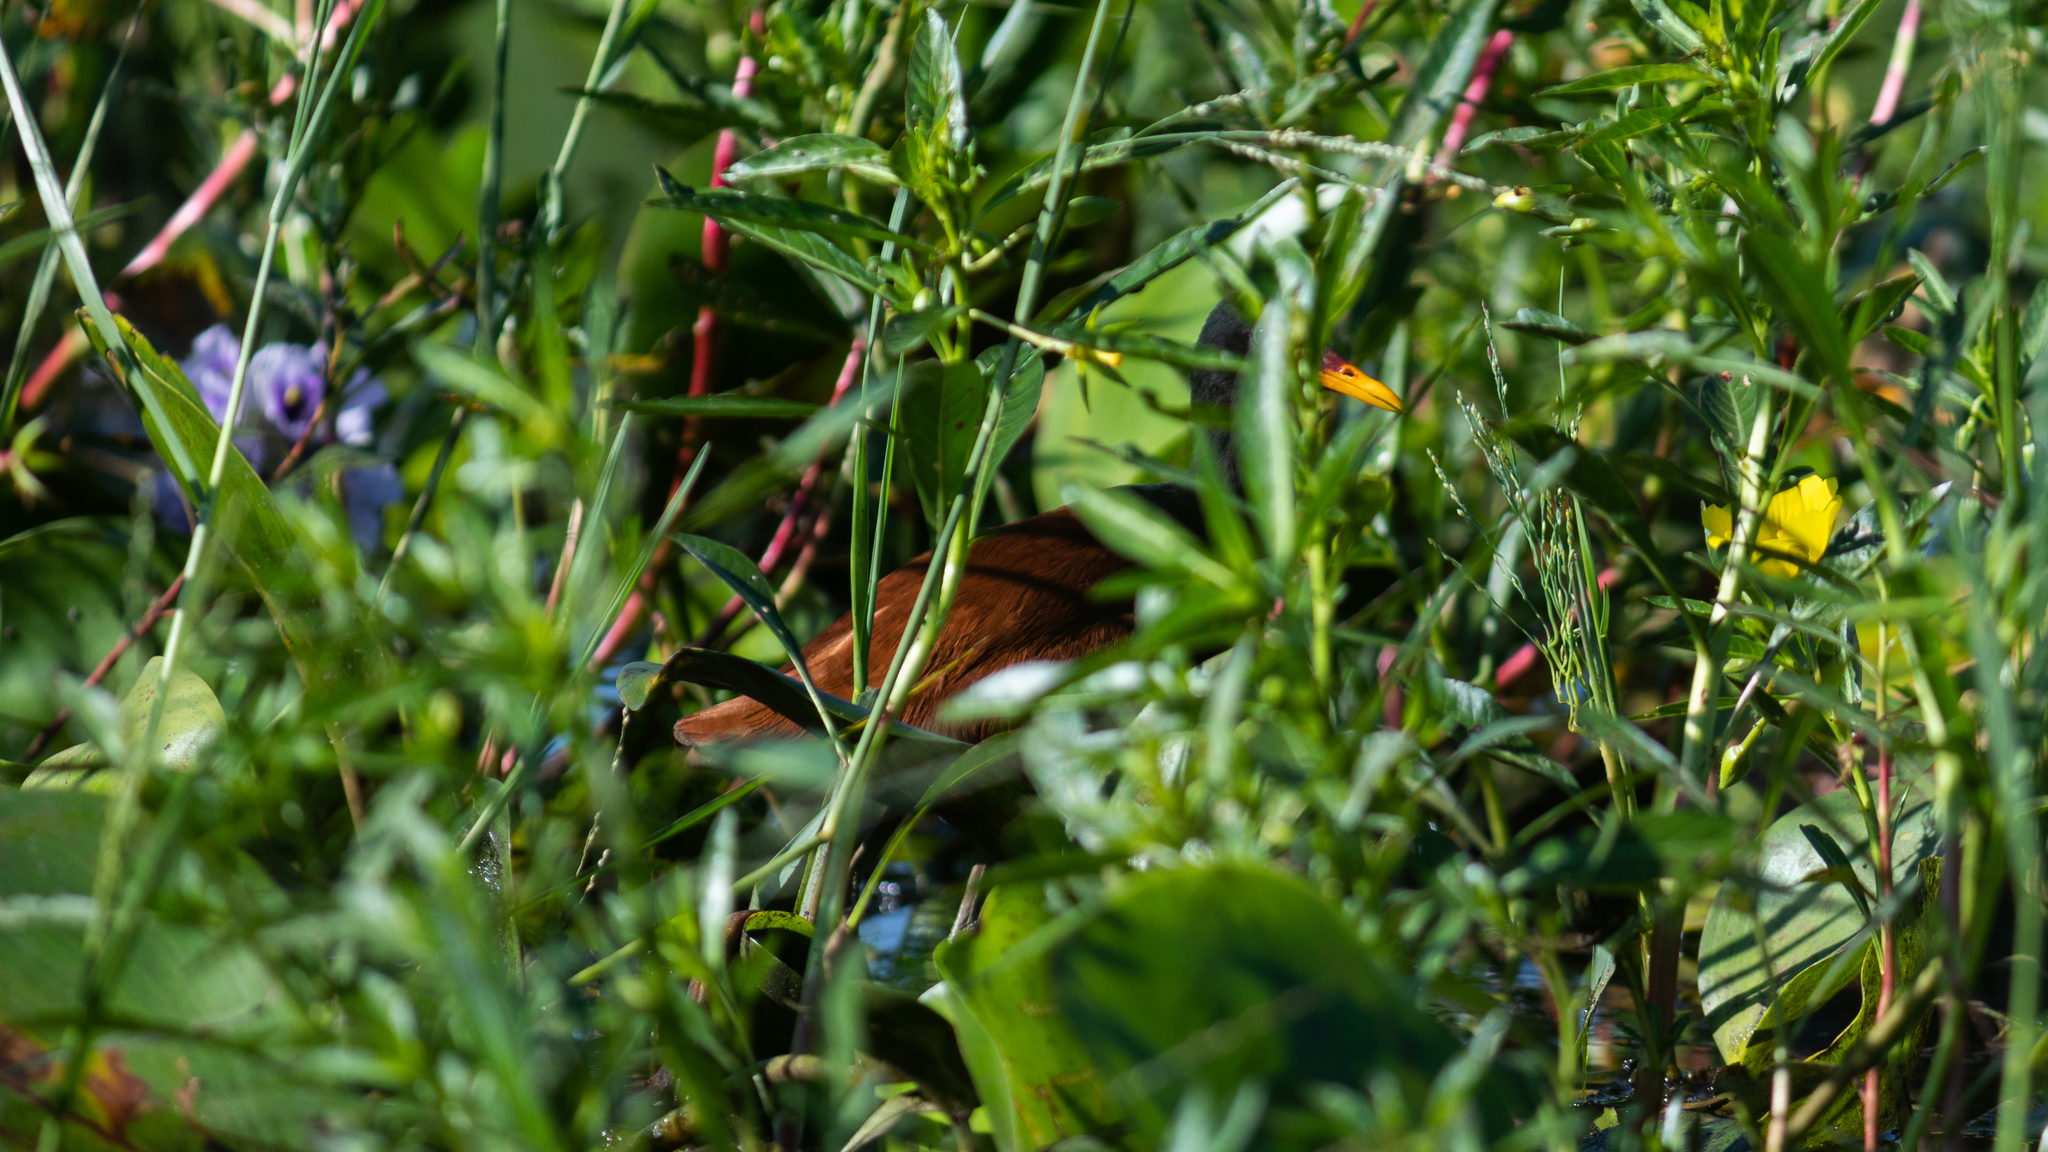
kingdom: Animalia
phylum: Chordata
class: Aves
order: Charadriiformes
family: Jacanidae
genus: Jacana
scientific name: Jacana jacana
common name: Wattled jacana
